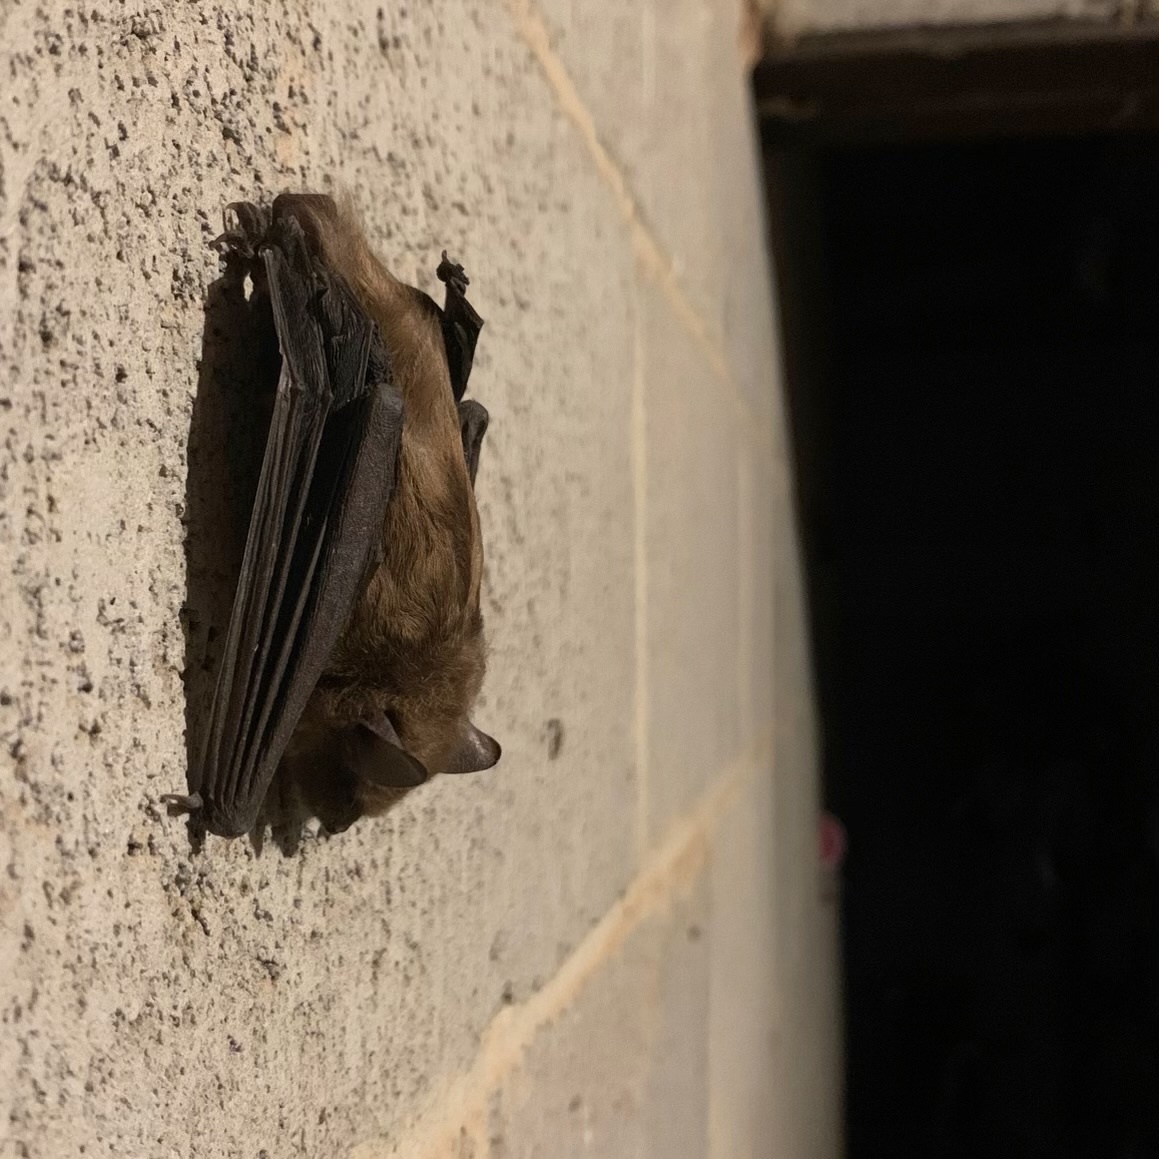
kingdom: Animalia
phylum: Chordata
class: Mammalia
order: Chiroptera
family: Vespertilionidae
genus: Eptesicus
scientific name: Eptesicus fuscus
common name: Big brown bat
